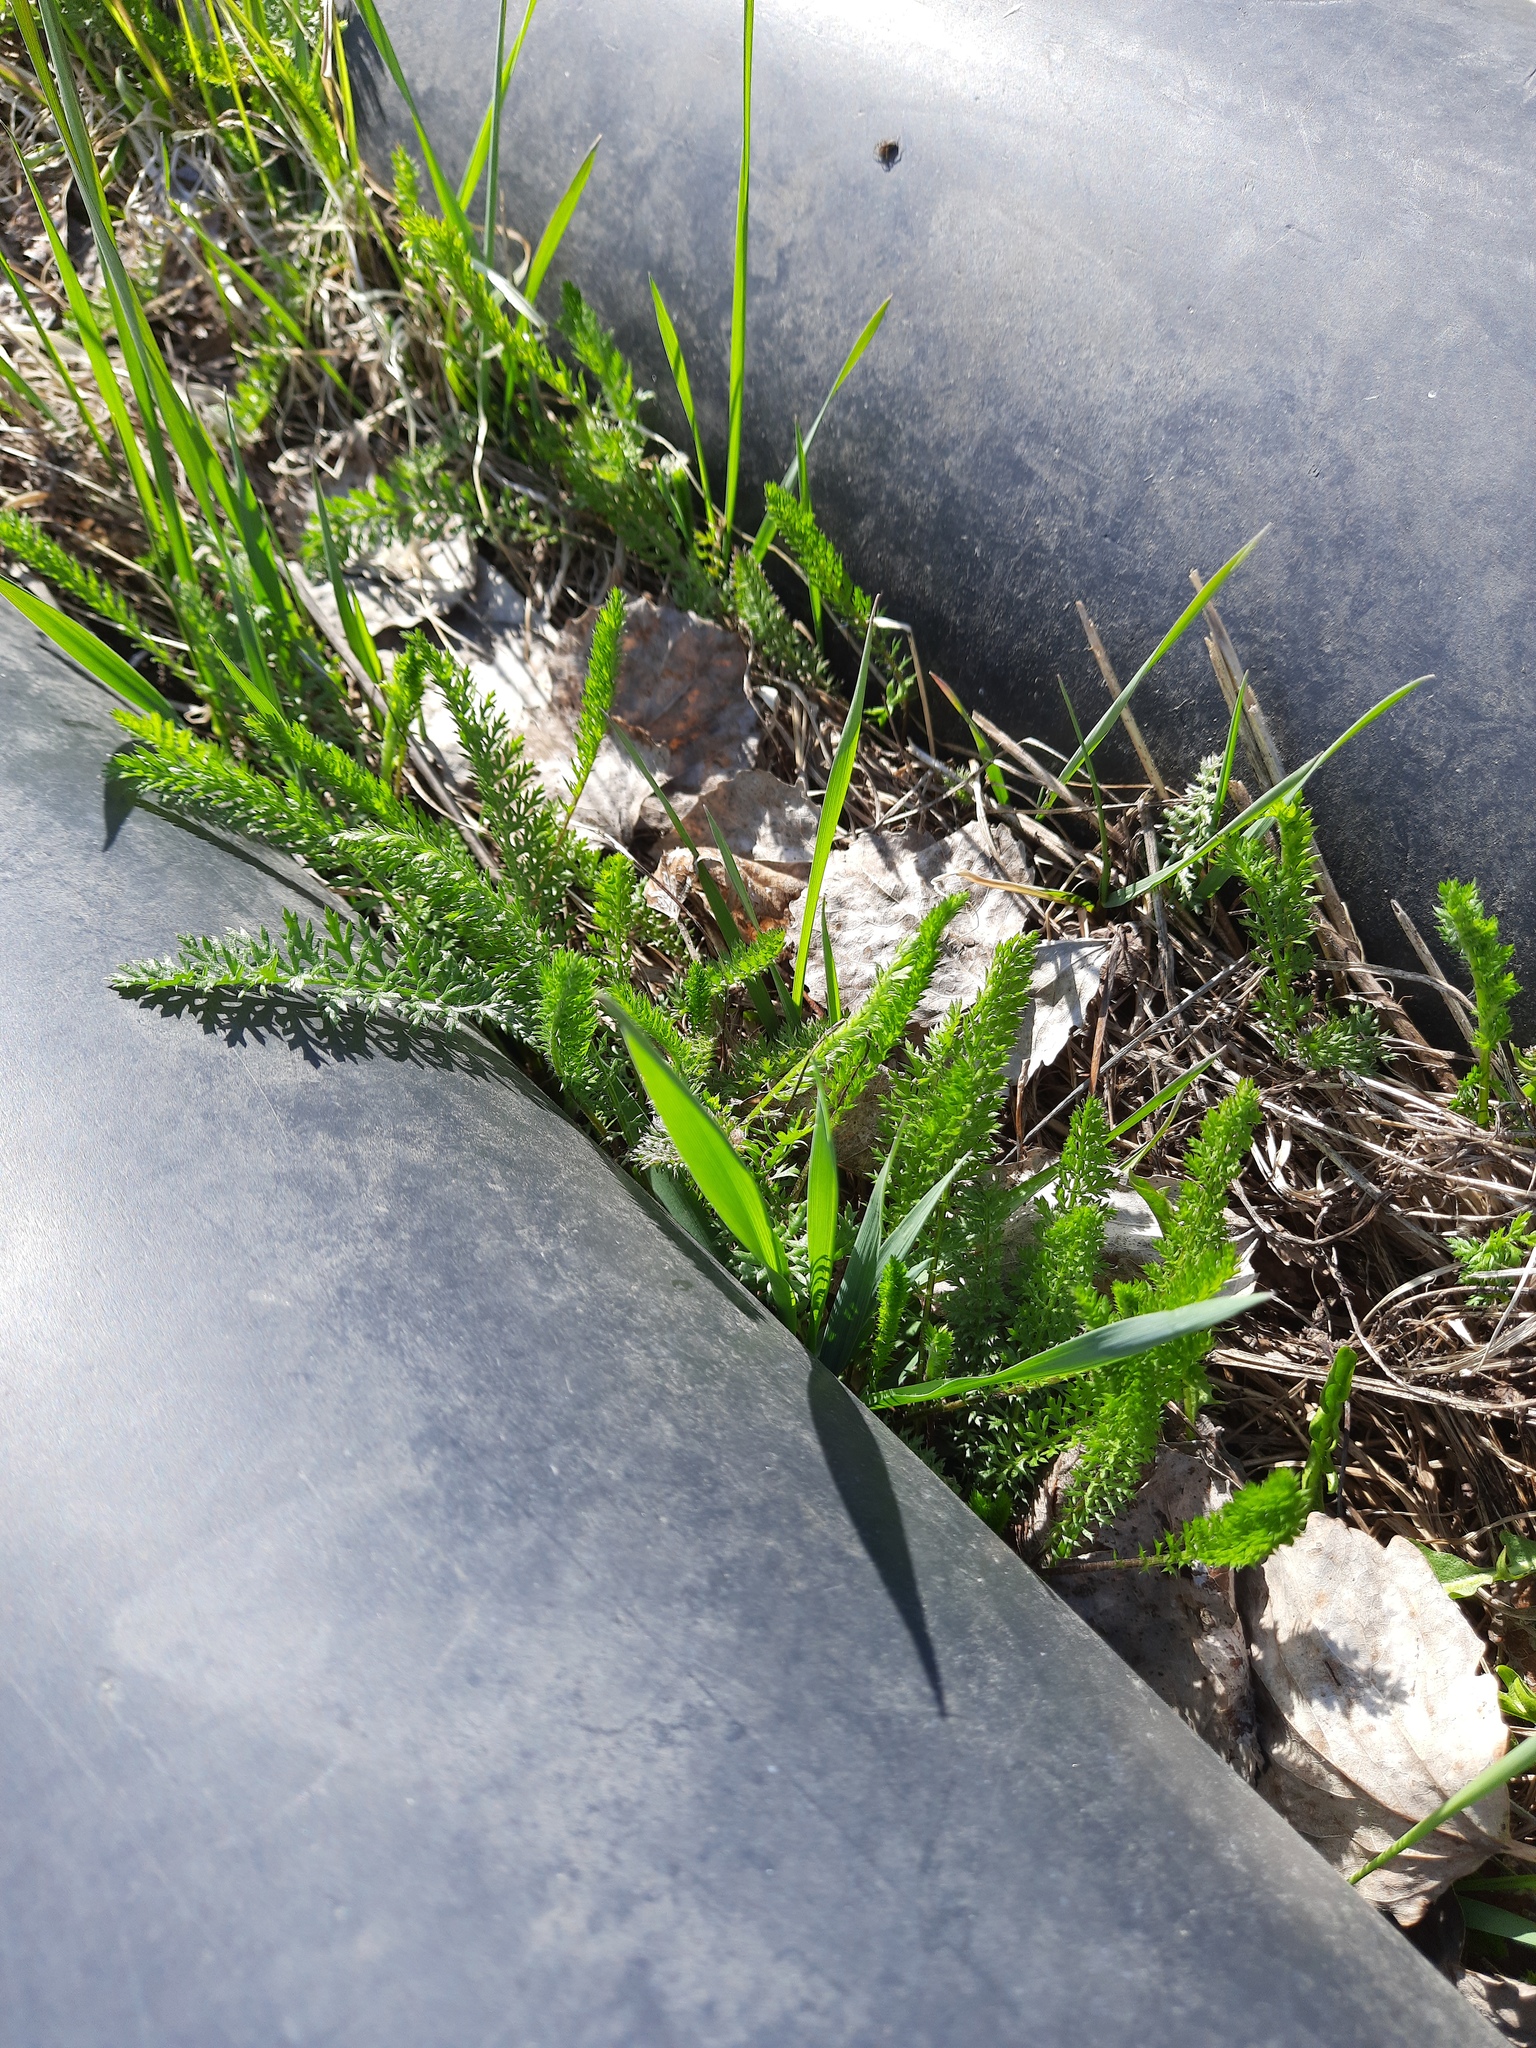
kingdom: Plantae
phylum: Tracheophyta
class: Magnoliopsida
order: Asterales
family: Asteraceae
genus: Achillea
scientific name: Achillea millefolium
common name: Yarrow
